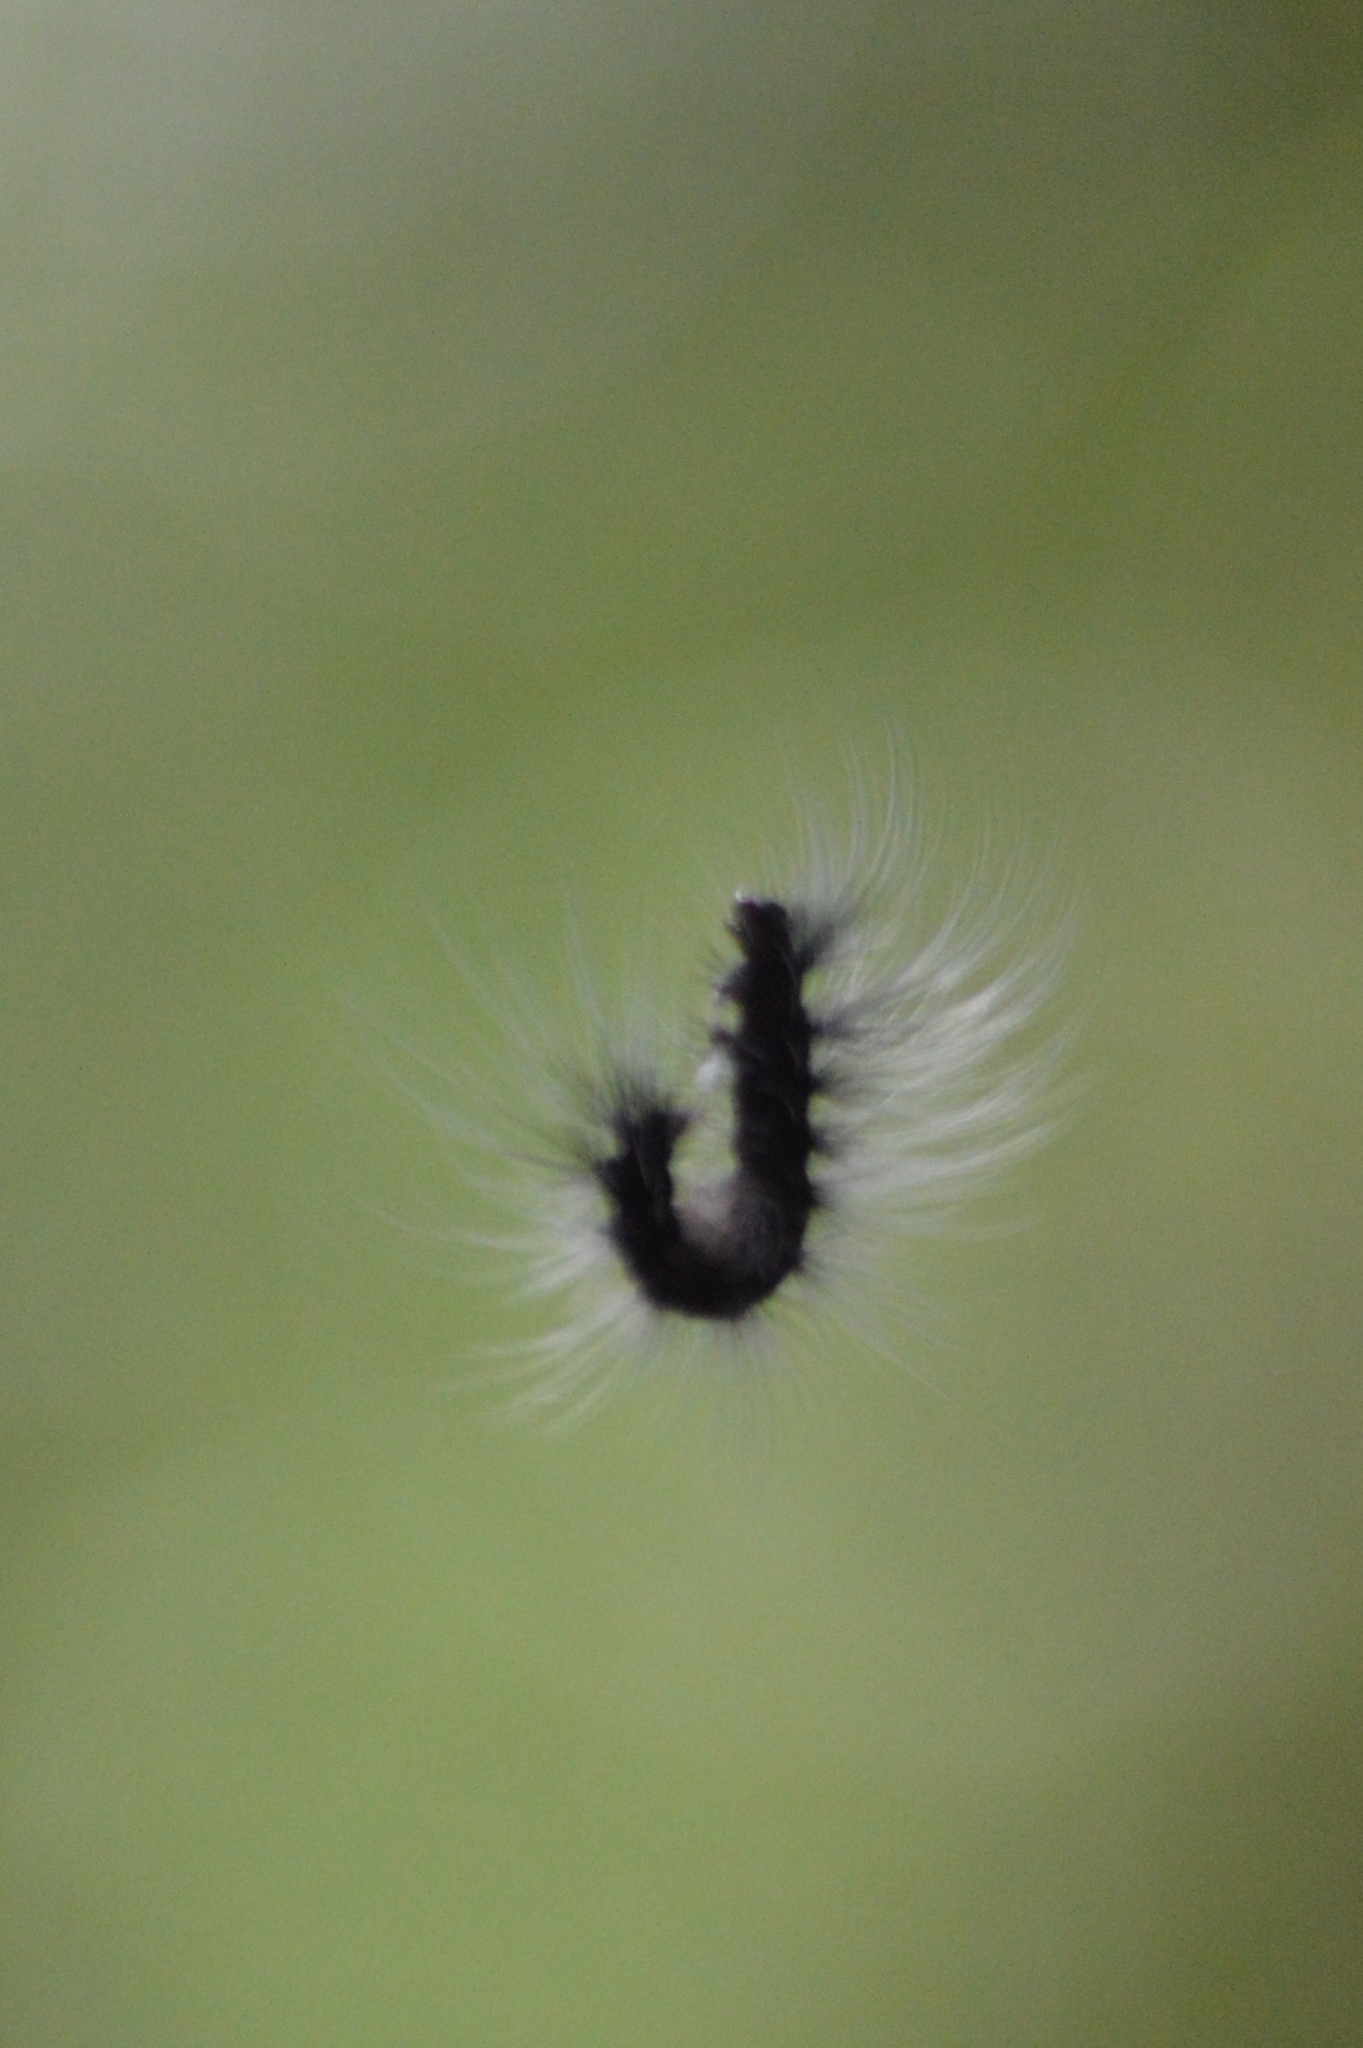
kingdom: Animalia
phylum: Arthropoda
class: Insecta
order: Lepidoptera
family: Erebidae
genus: Apistosia
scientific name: Apistosia judas
